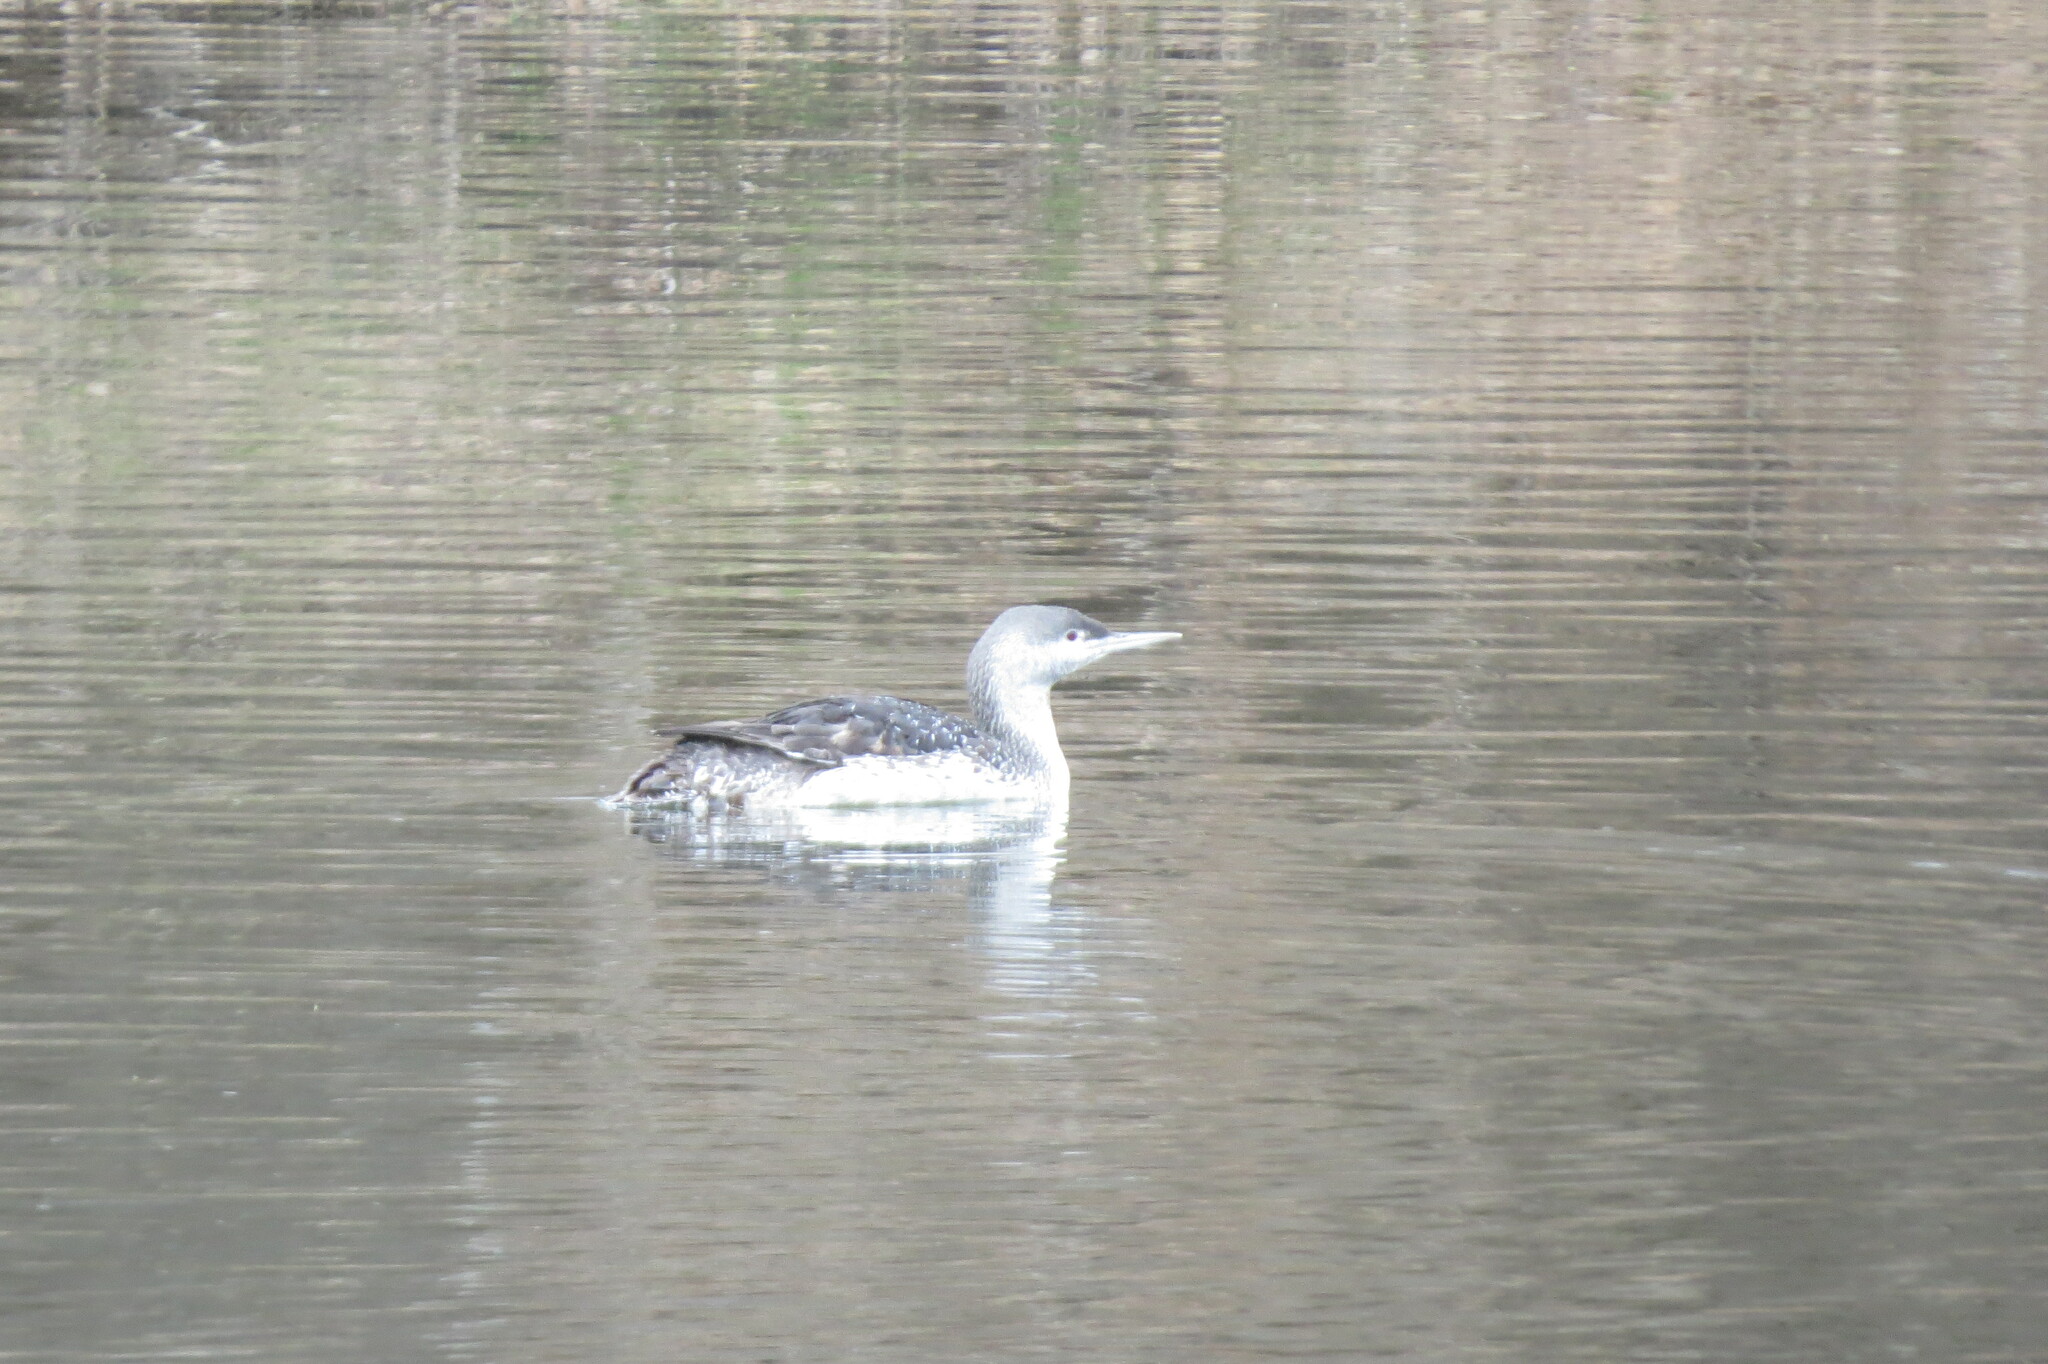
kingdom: Animalia
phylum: Chordata
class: Aves
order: Gaviiformes
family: Gaviidae
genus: Gavia
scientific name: Gavia stellata
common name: Red-throated loon
